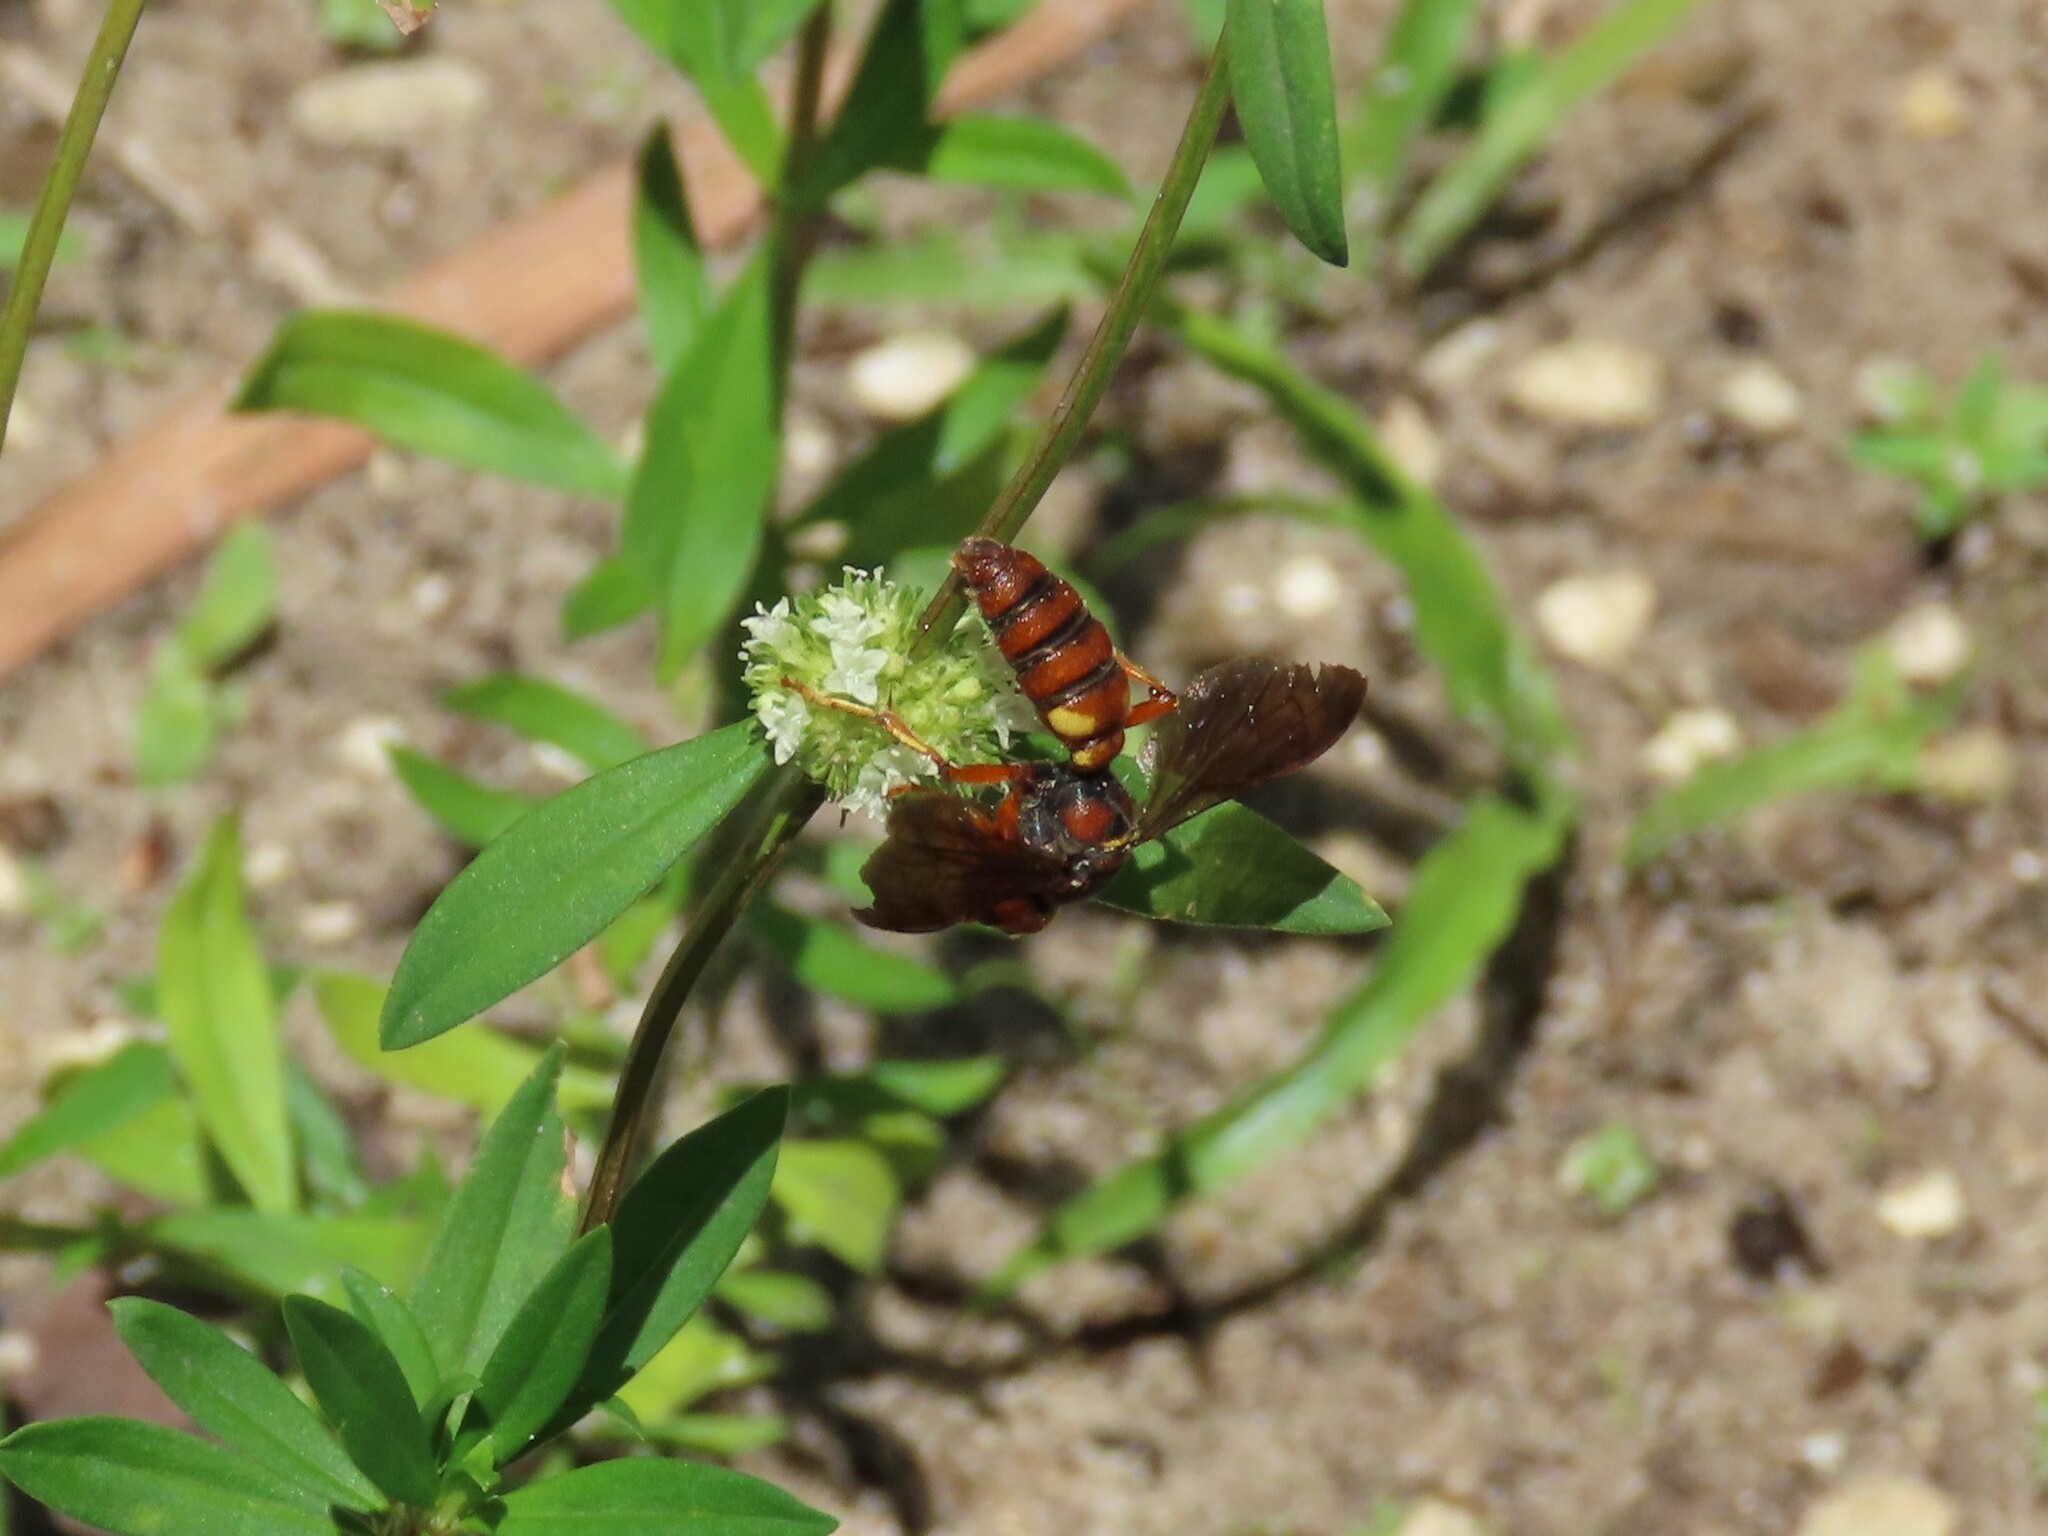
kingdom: Animalia
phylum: Arthropoda
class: Insecta
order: Hymenoptera
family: Crabronidae
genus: Cerceris
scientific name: Cerceris bicornuta
